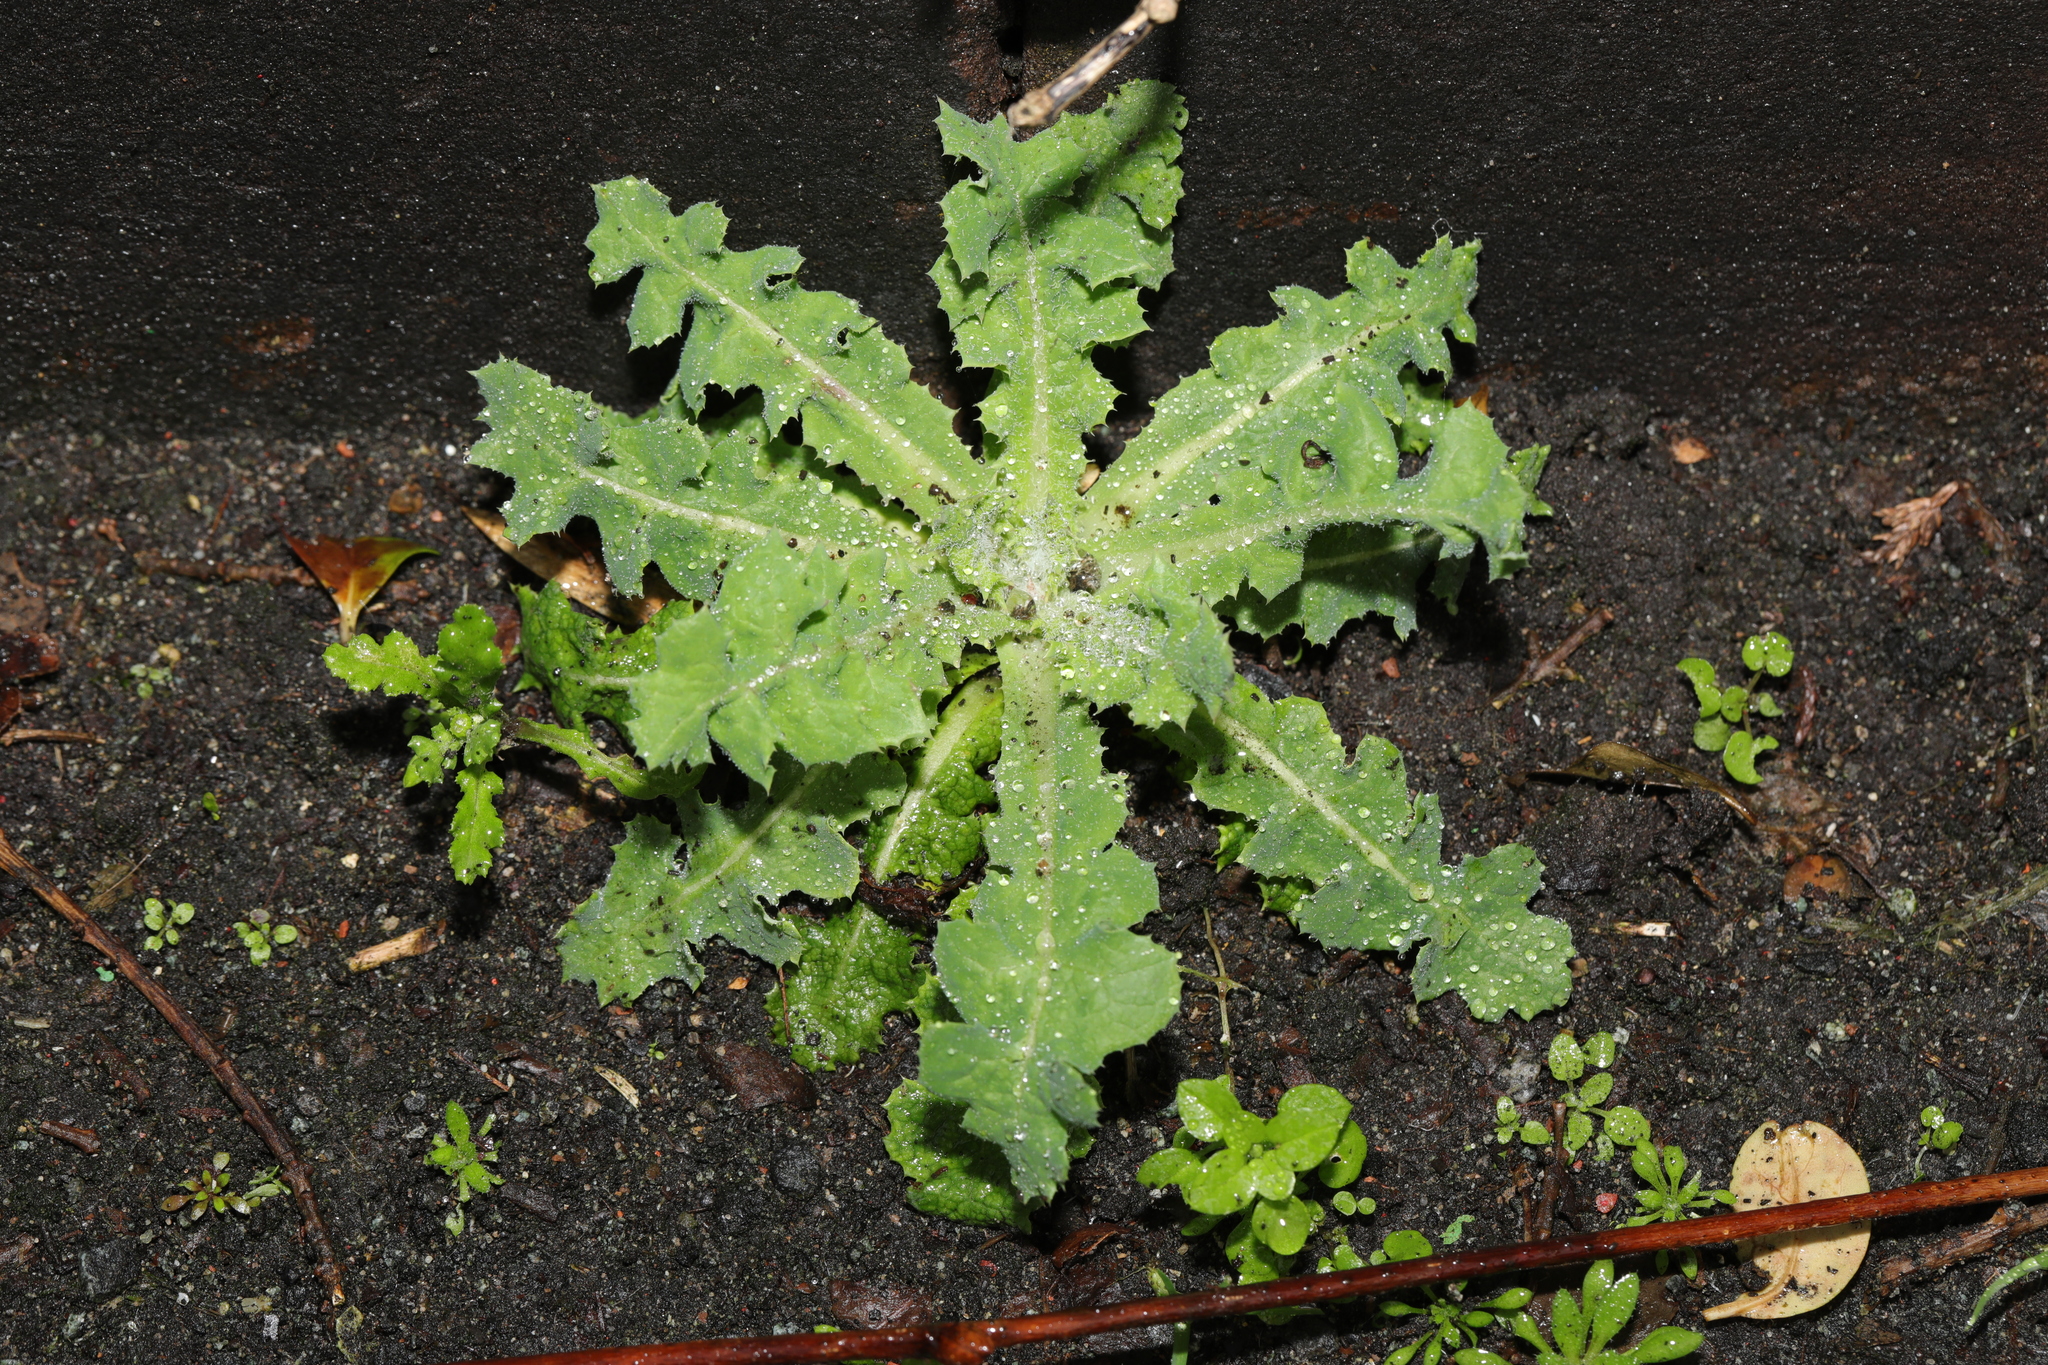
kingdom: Plantae
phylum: Tracheophyta
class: Magnoliopsida
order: Asterales
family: Asteraceae
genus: Sonchus
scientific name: Sonchus asper
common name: Prickly sow-thistle
